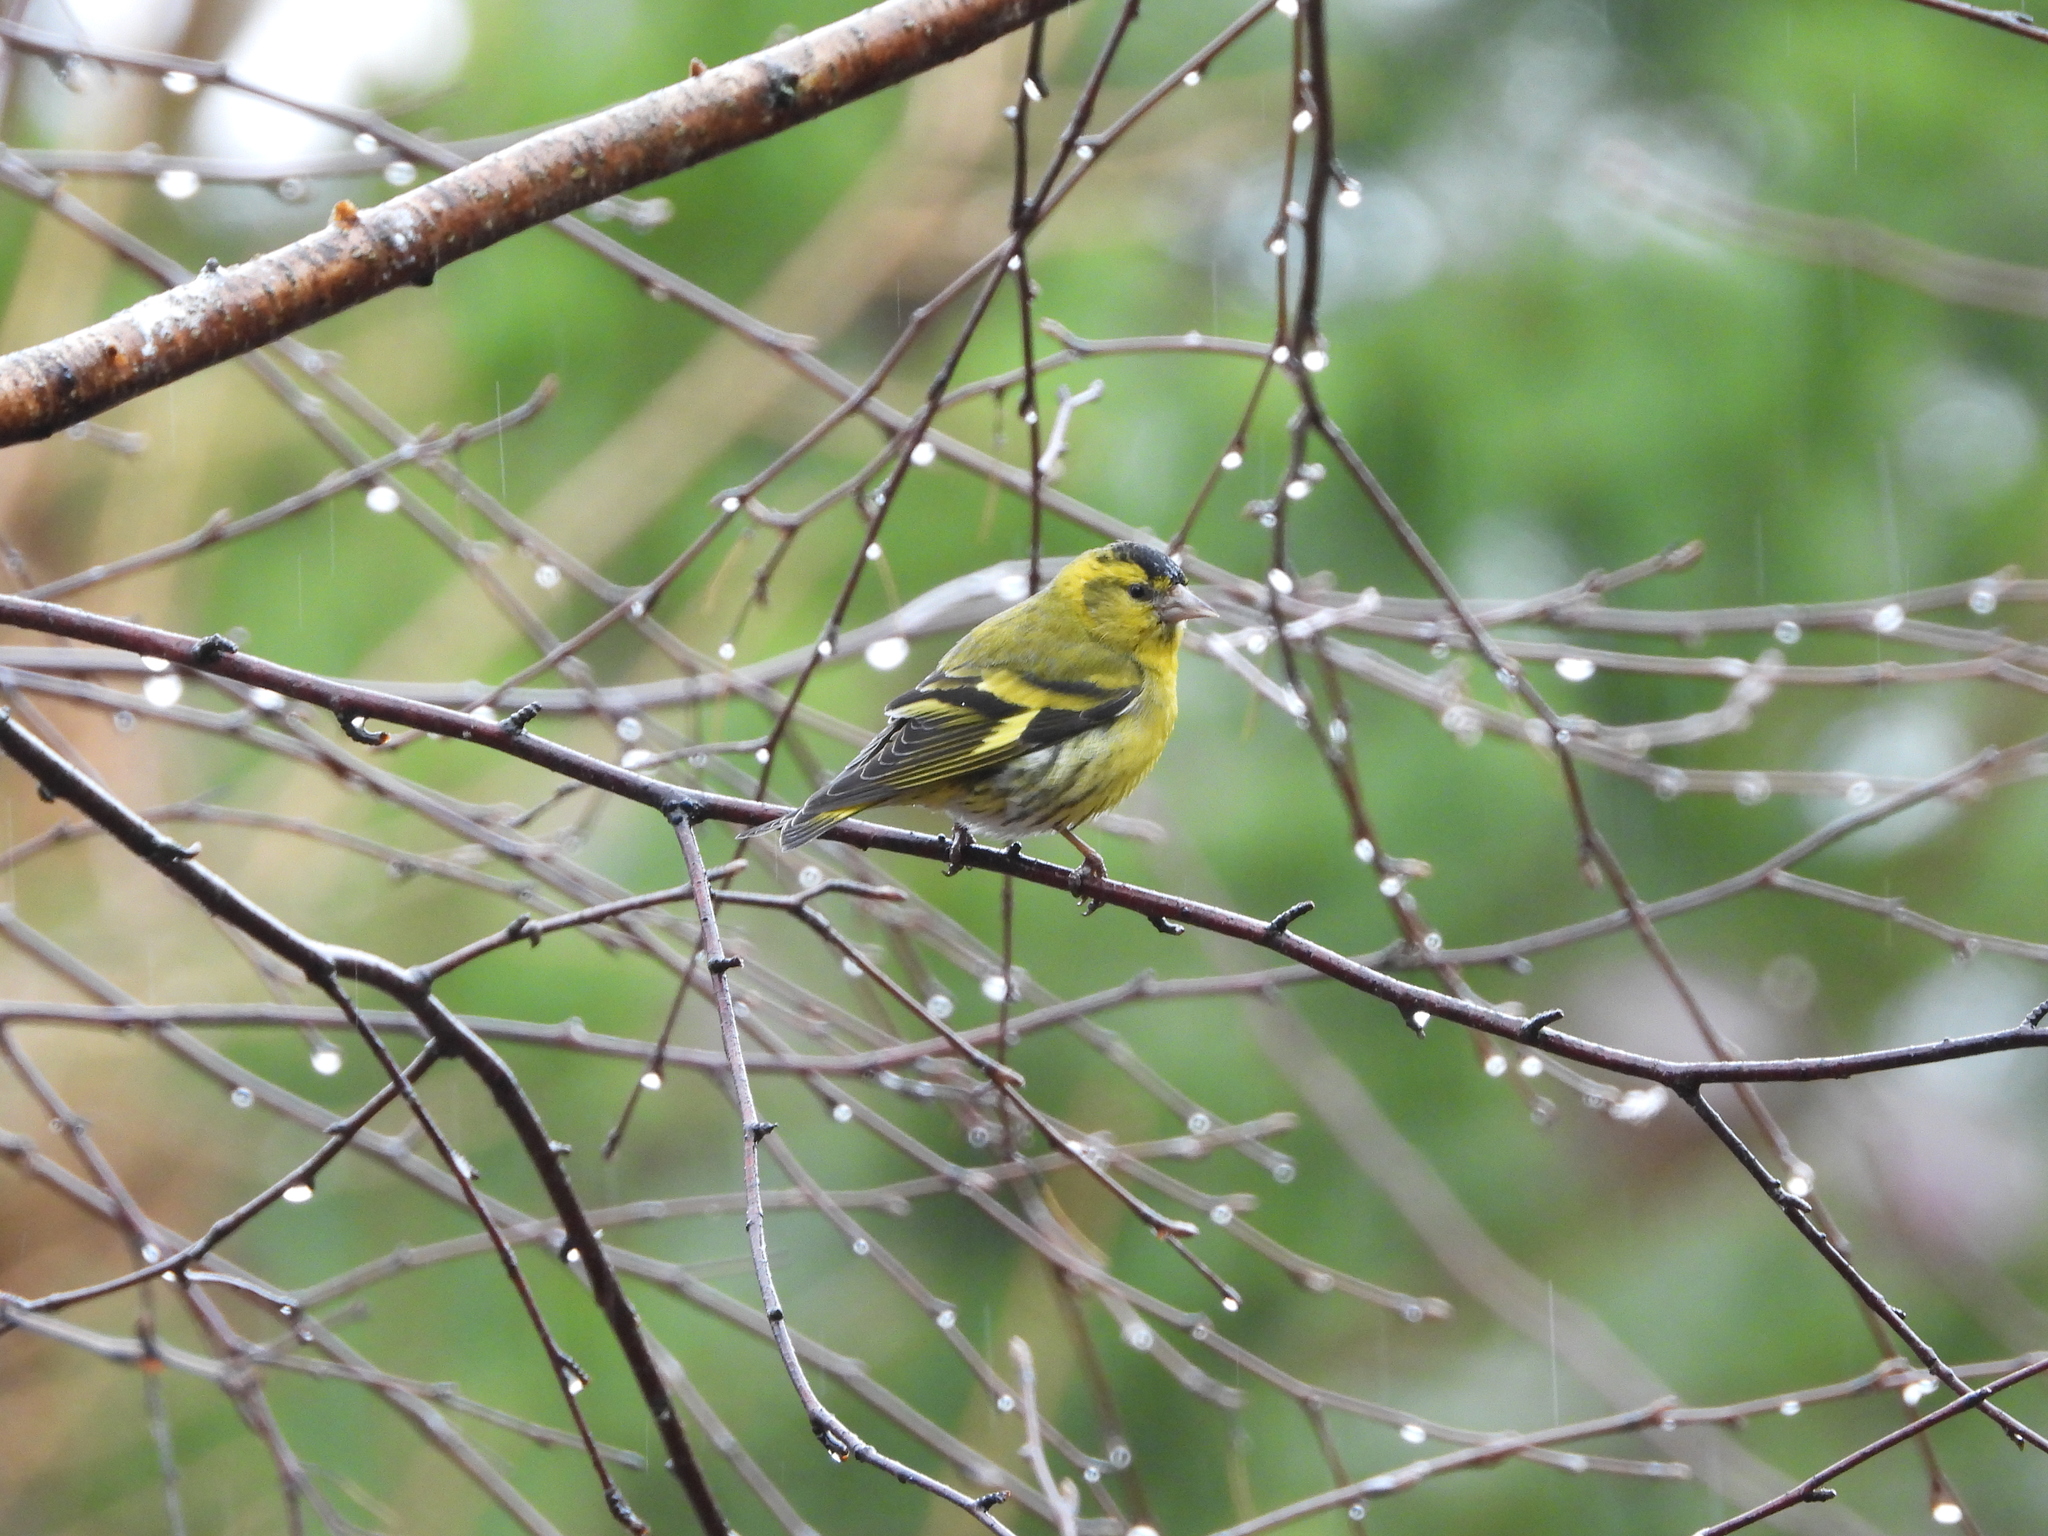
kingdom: Animalia
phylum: Chordata
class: Aves
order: Passeriformes
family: Fringillidae
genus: Spinus
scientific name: Spinus spinus
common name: Eurasian siskin
